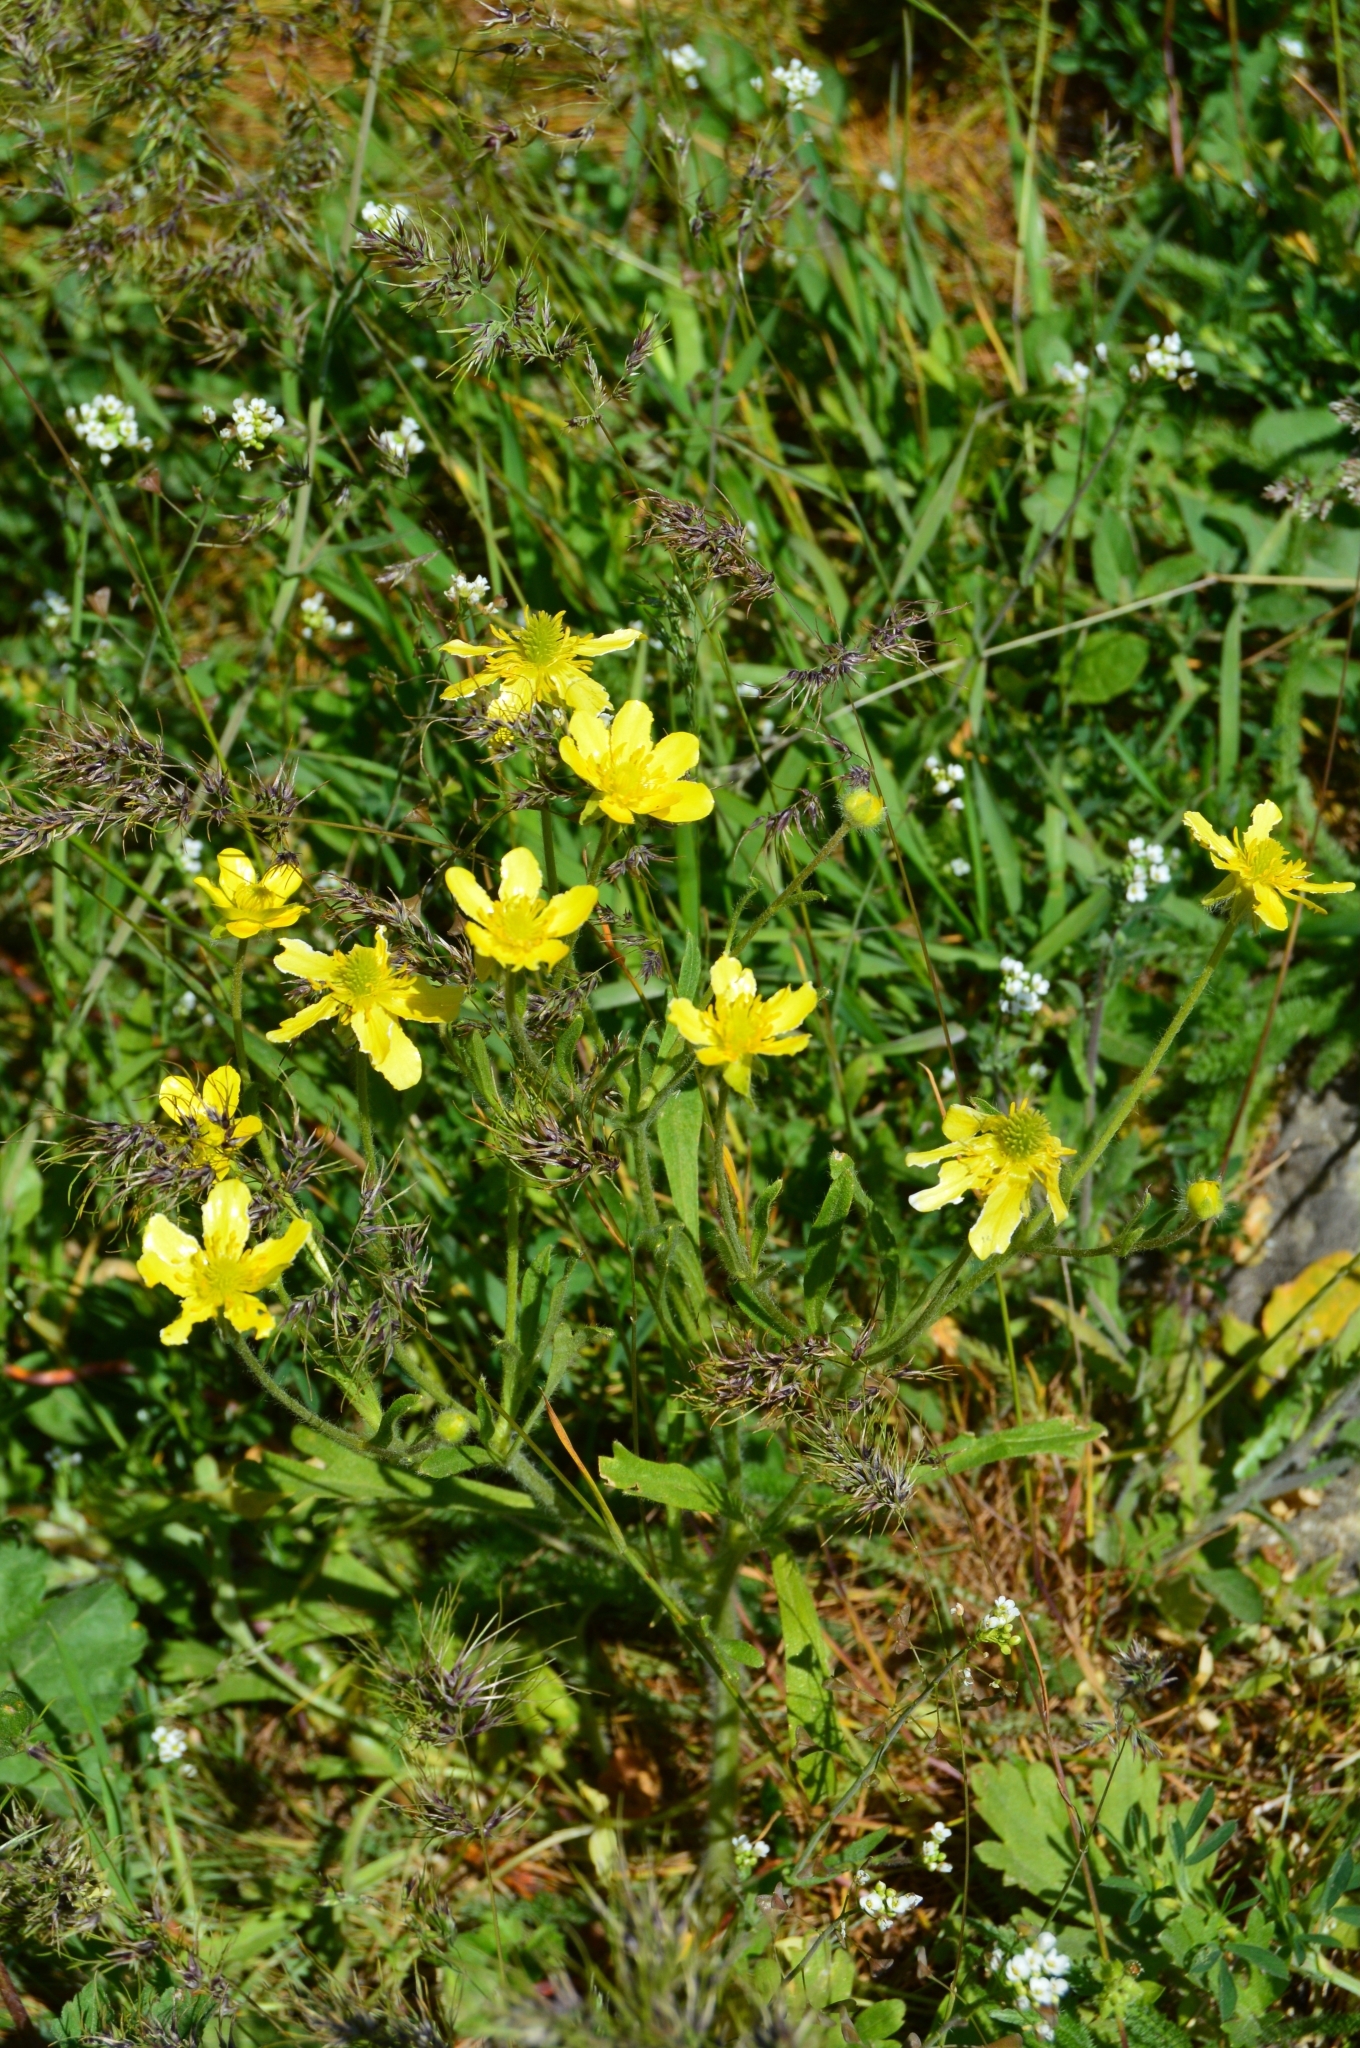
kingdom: Plantae
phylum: Tracheophyta
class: Magnoliopsida
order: Ranunculales
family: Ranunculaceae
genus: Ranunculus
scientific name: Ranunculus oxyspermus
